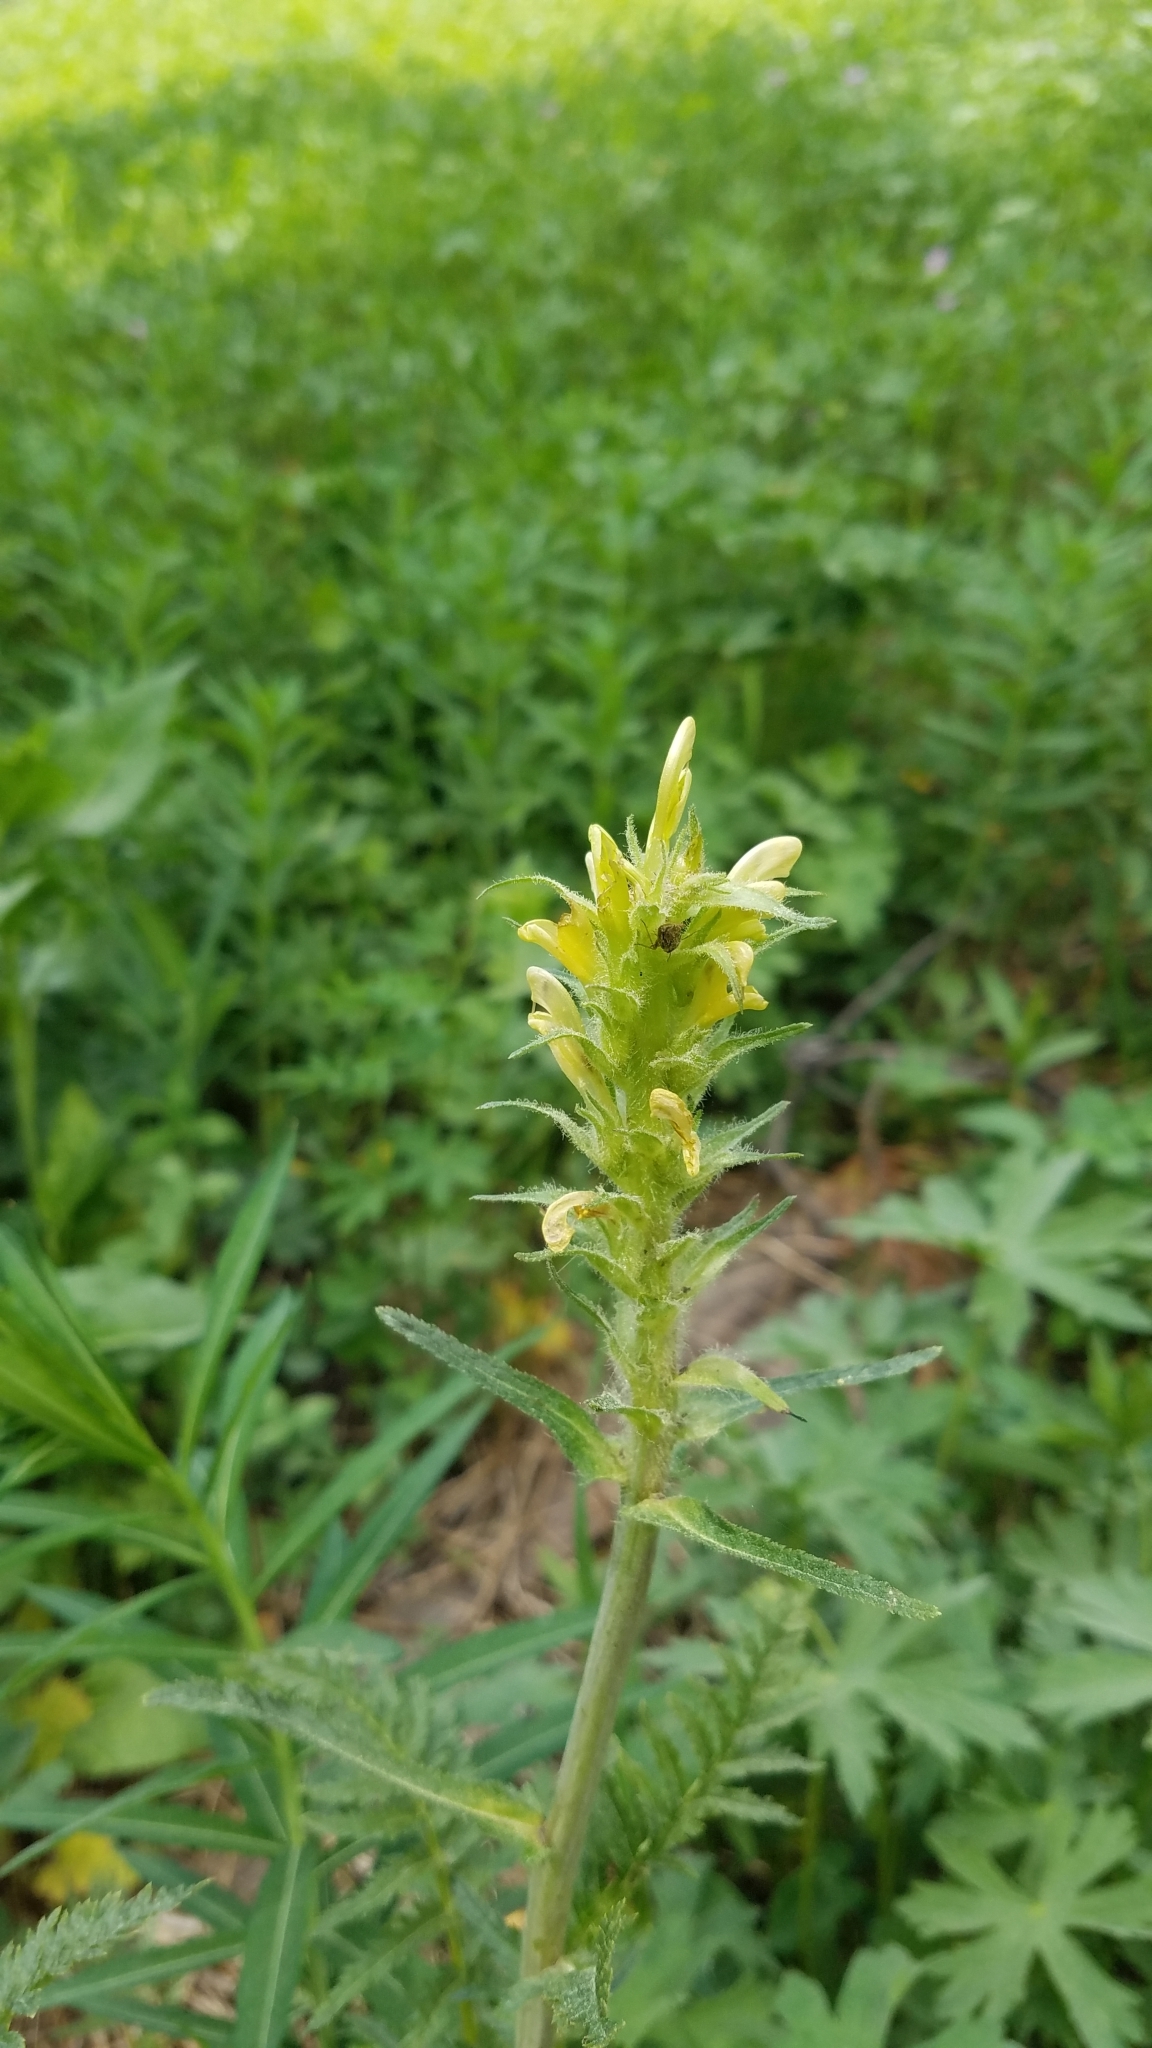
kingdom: Plantae
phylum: Tracheophyta
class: Magnoliopsida
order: Lamiales
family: Orobanchaceae
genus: Pedicularis
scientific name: Pedicularis bracteosa
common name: Bracted lousewort
